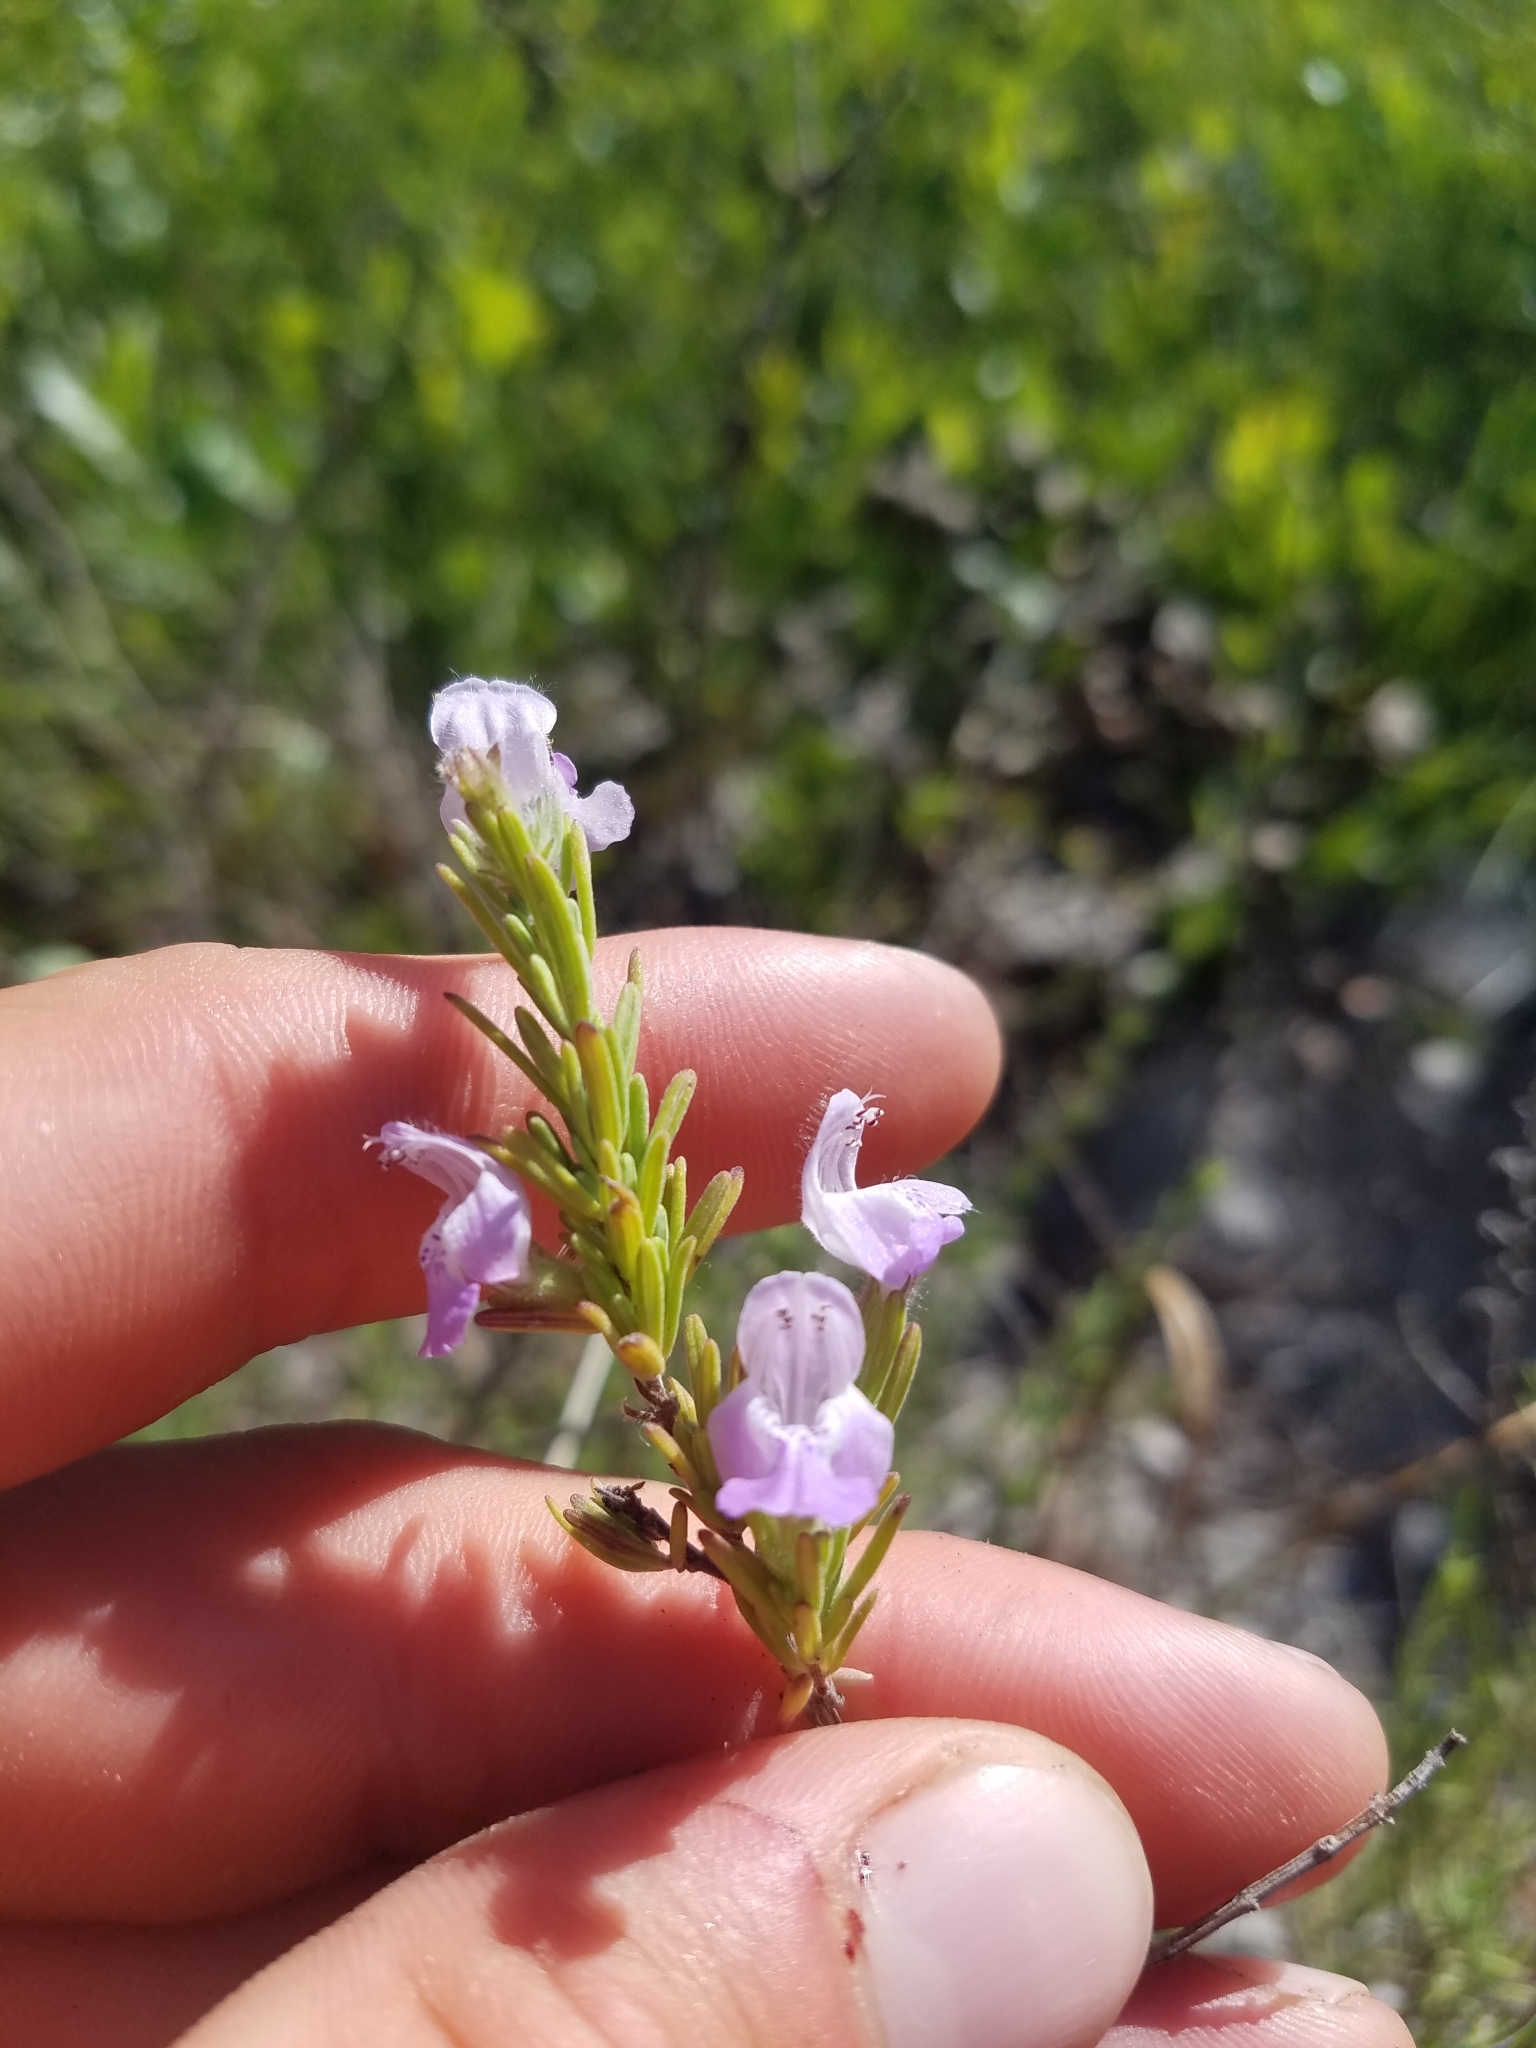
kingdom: Plantae
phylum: Tracheophyta
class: Magnoliopsida
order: Lamiales
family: Lamiaceae
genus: Conradina
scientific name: Conradina canescens
